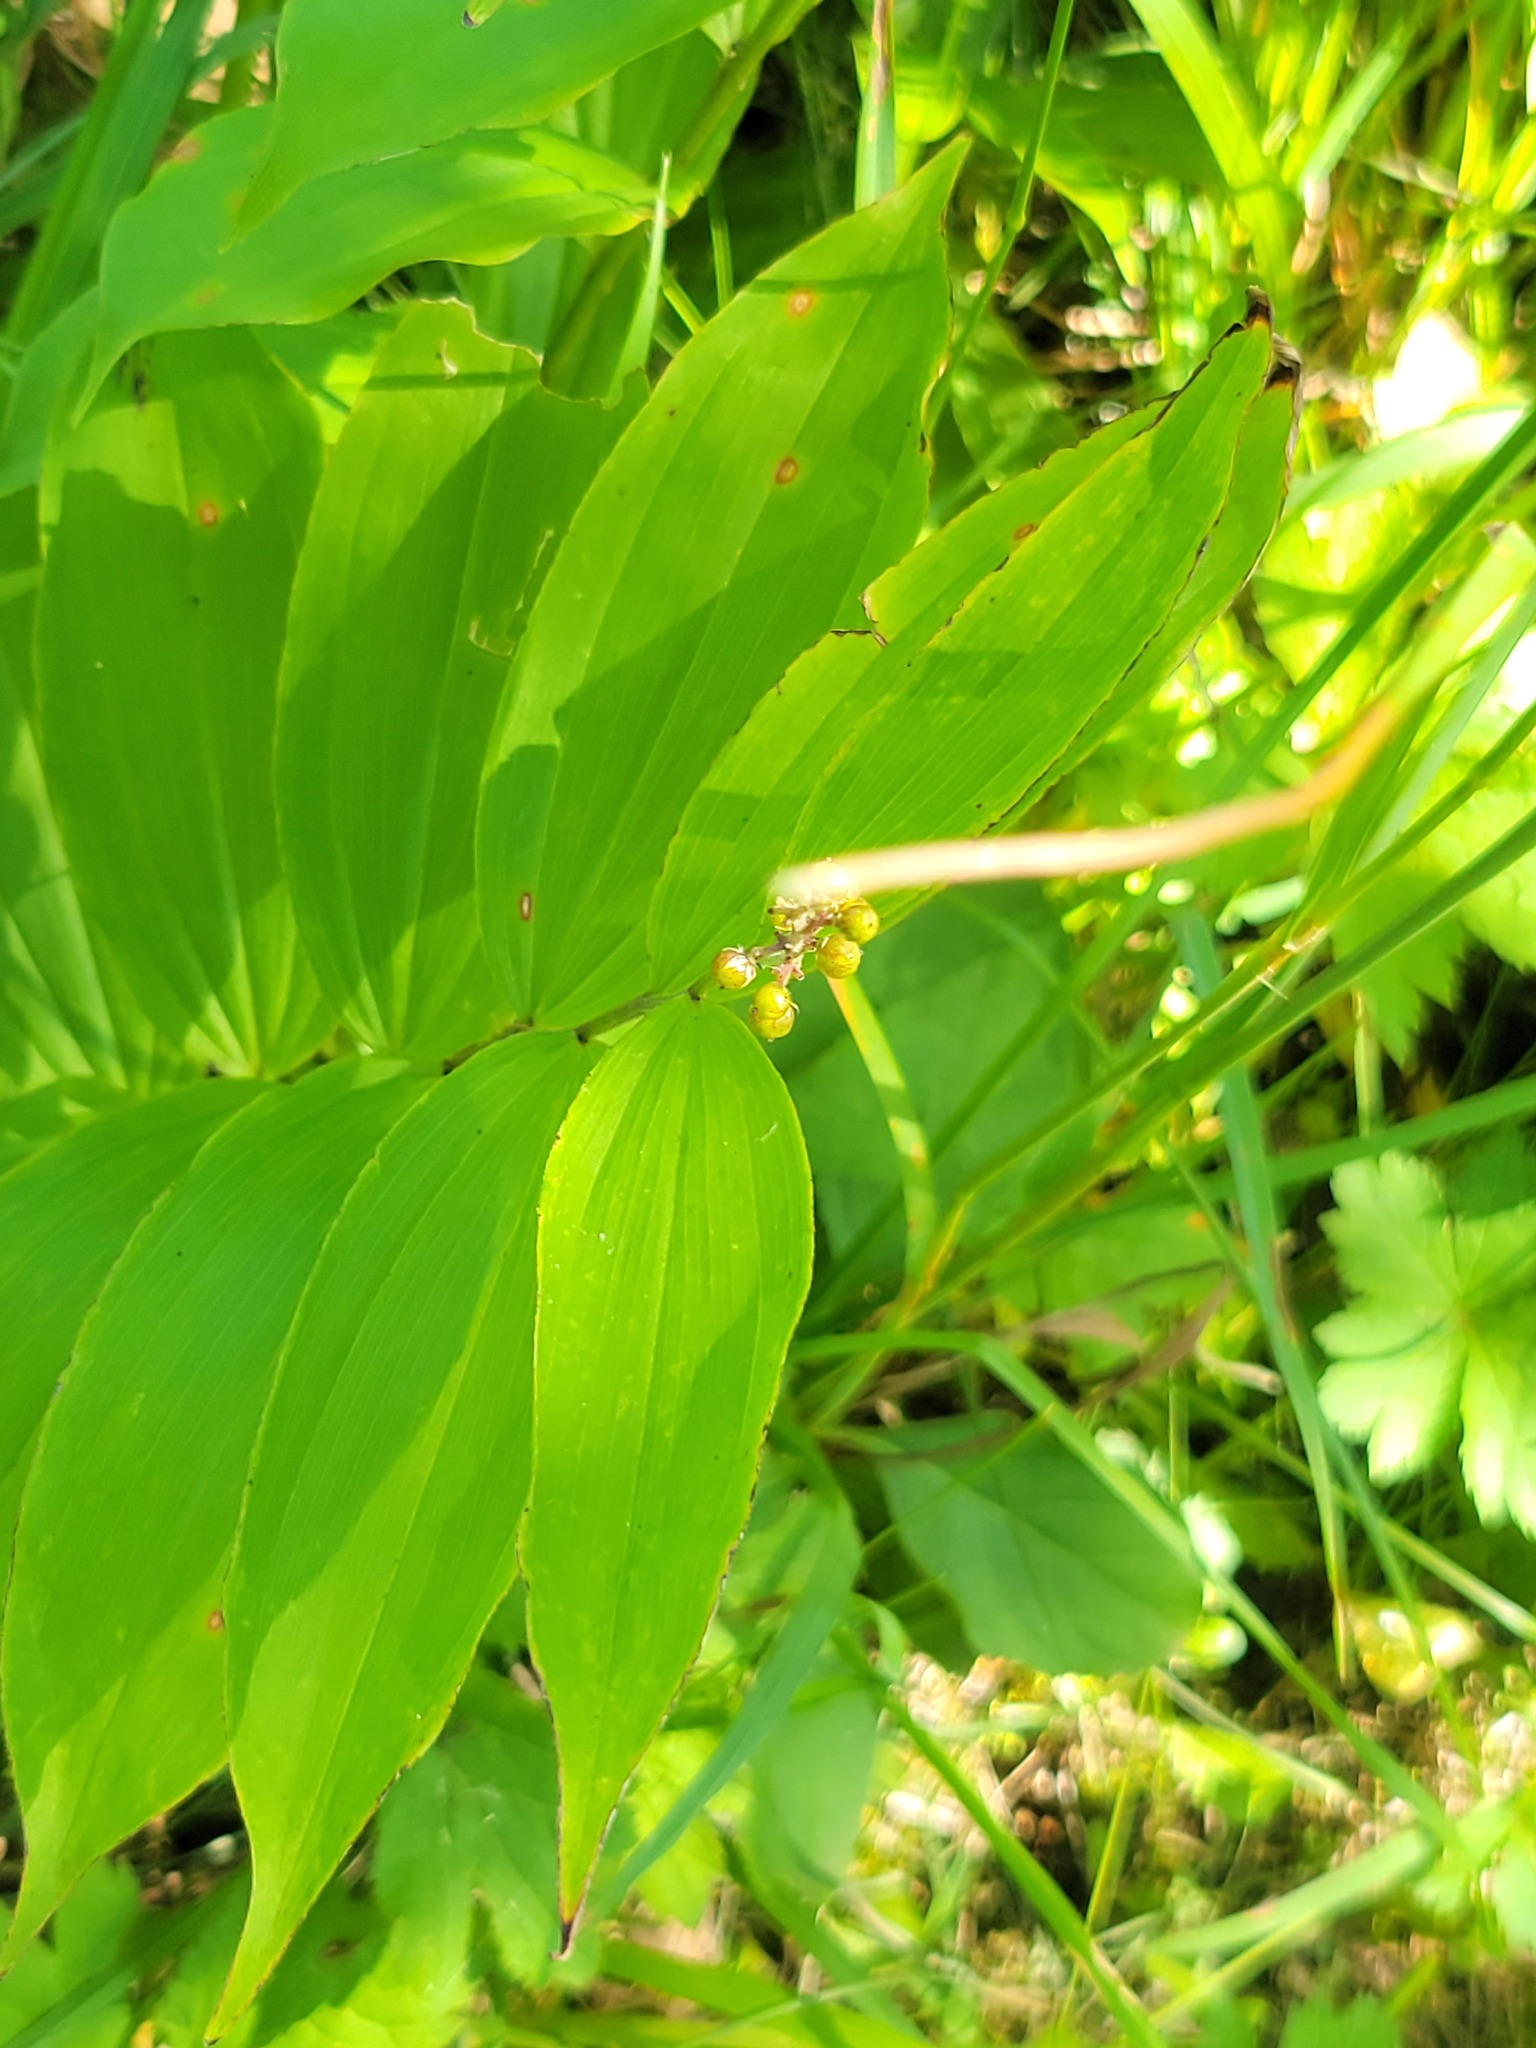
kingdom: Plantae
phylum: Tracheophyta
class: Liliopsida
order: Asparagales
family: Asparagaceae
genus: Maianthemum
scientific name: Maianthemum racemosum
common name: False spikenard
